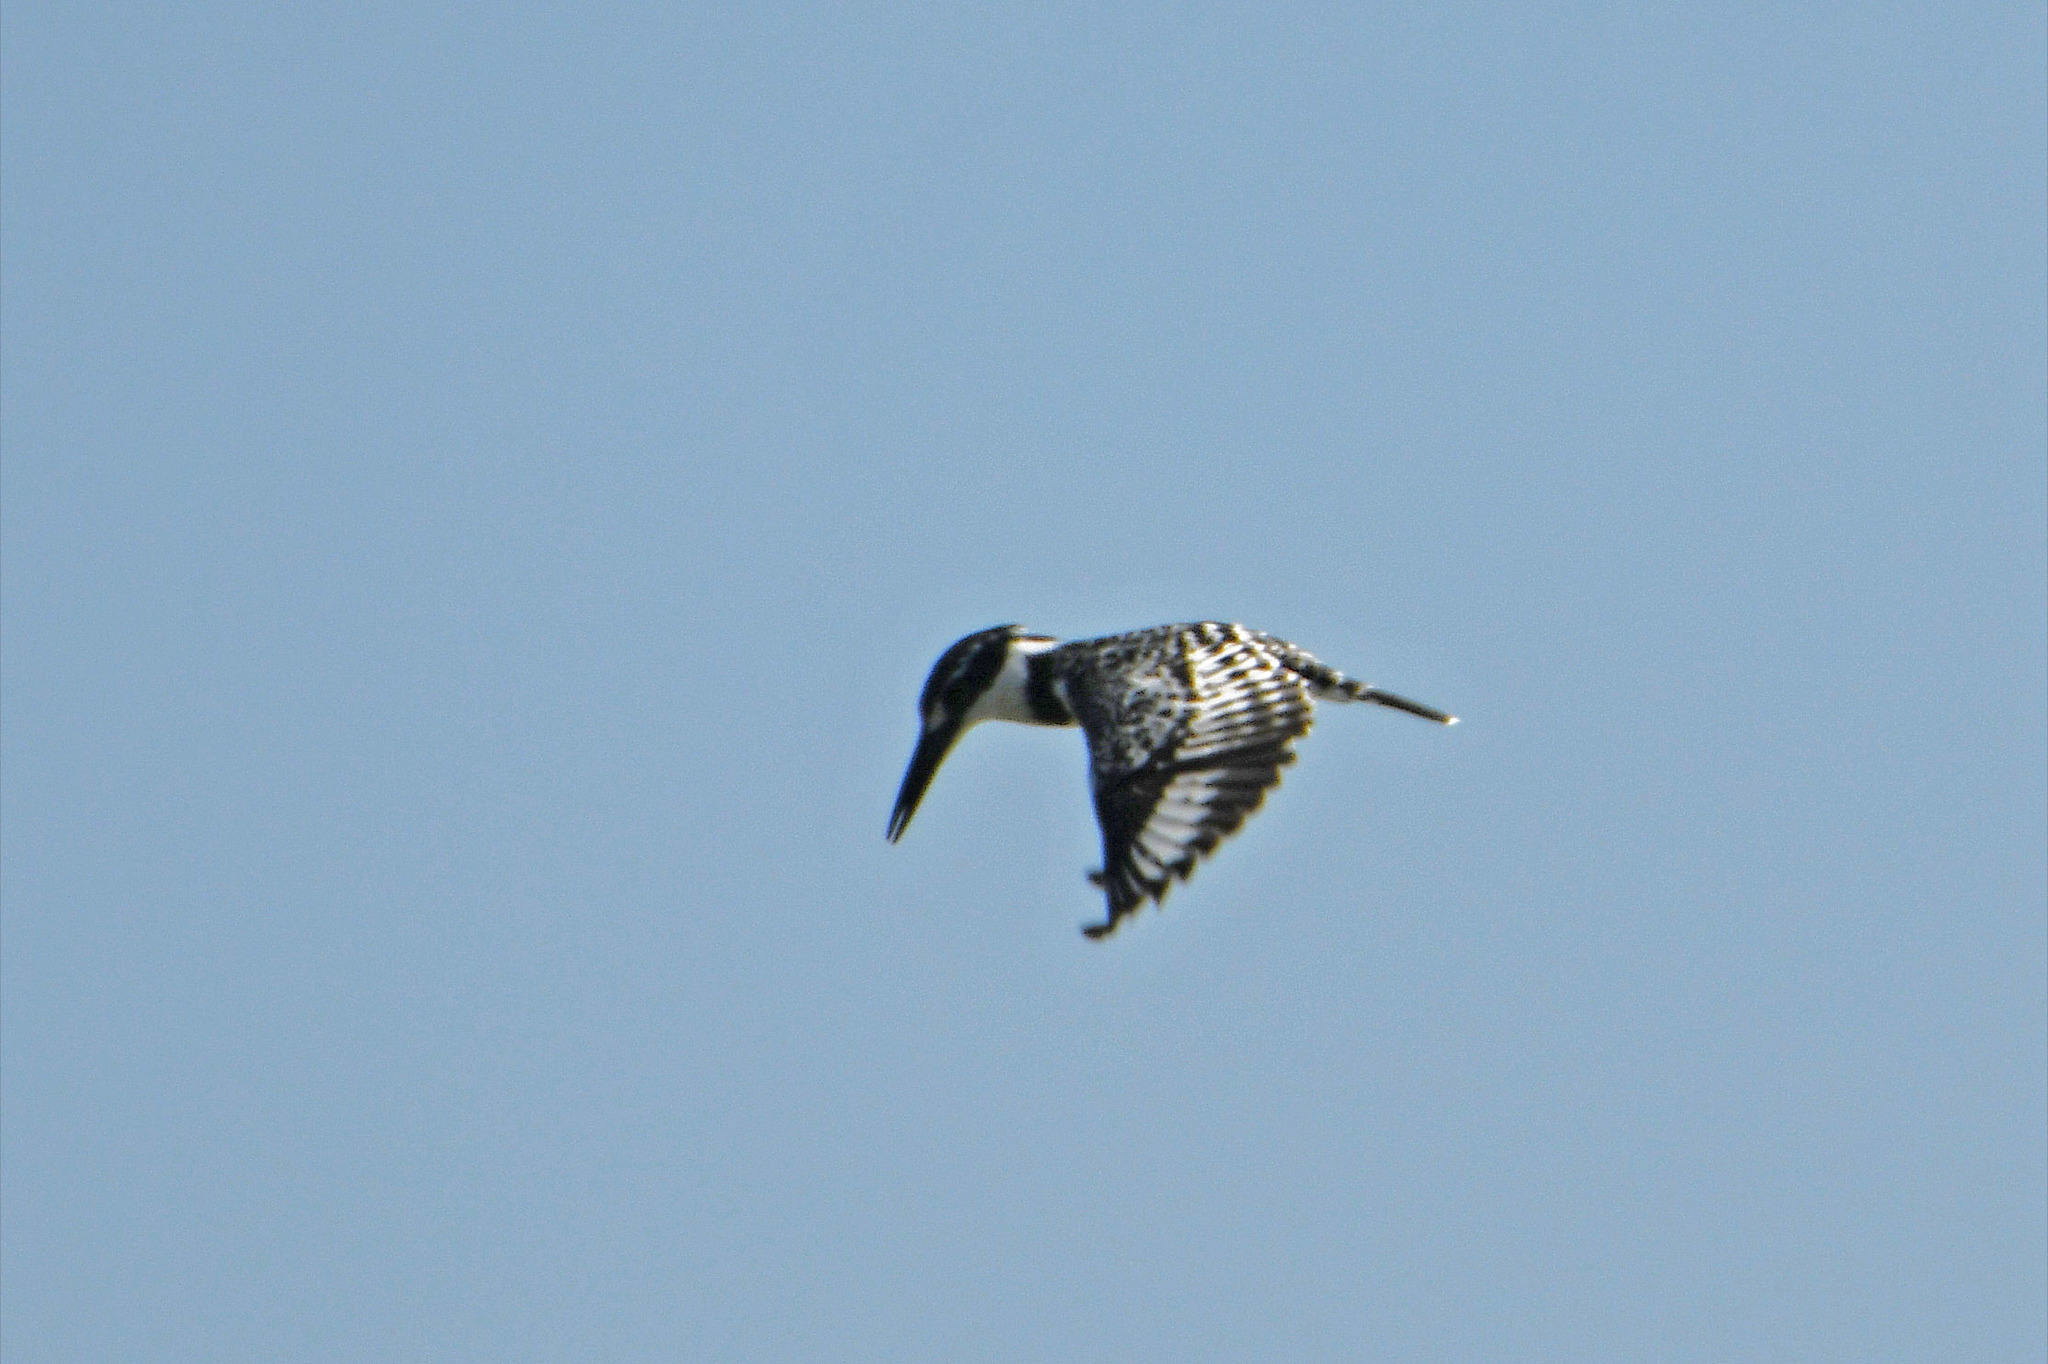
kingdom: Animalia
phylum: Chordata
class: Aves
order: Coraciiformes
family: Alcedinidae
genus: Ceryle
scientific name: Ceryle rudis
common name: Pied kingfisher
